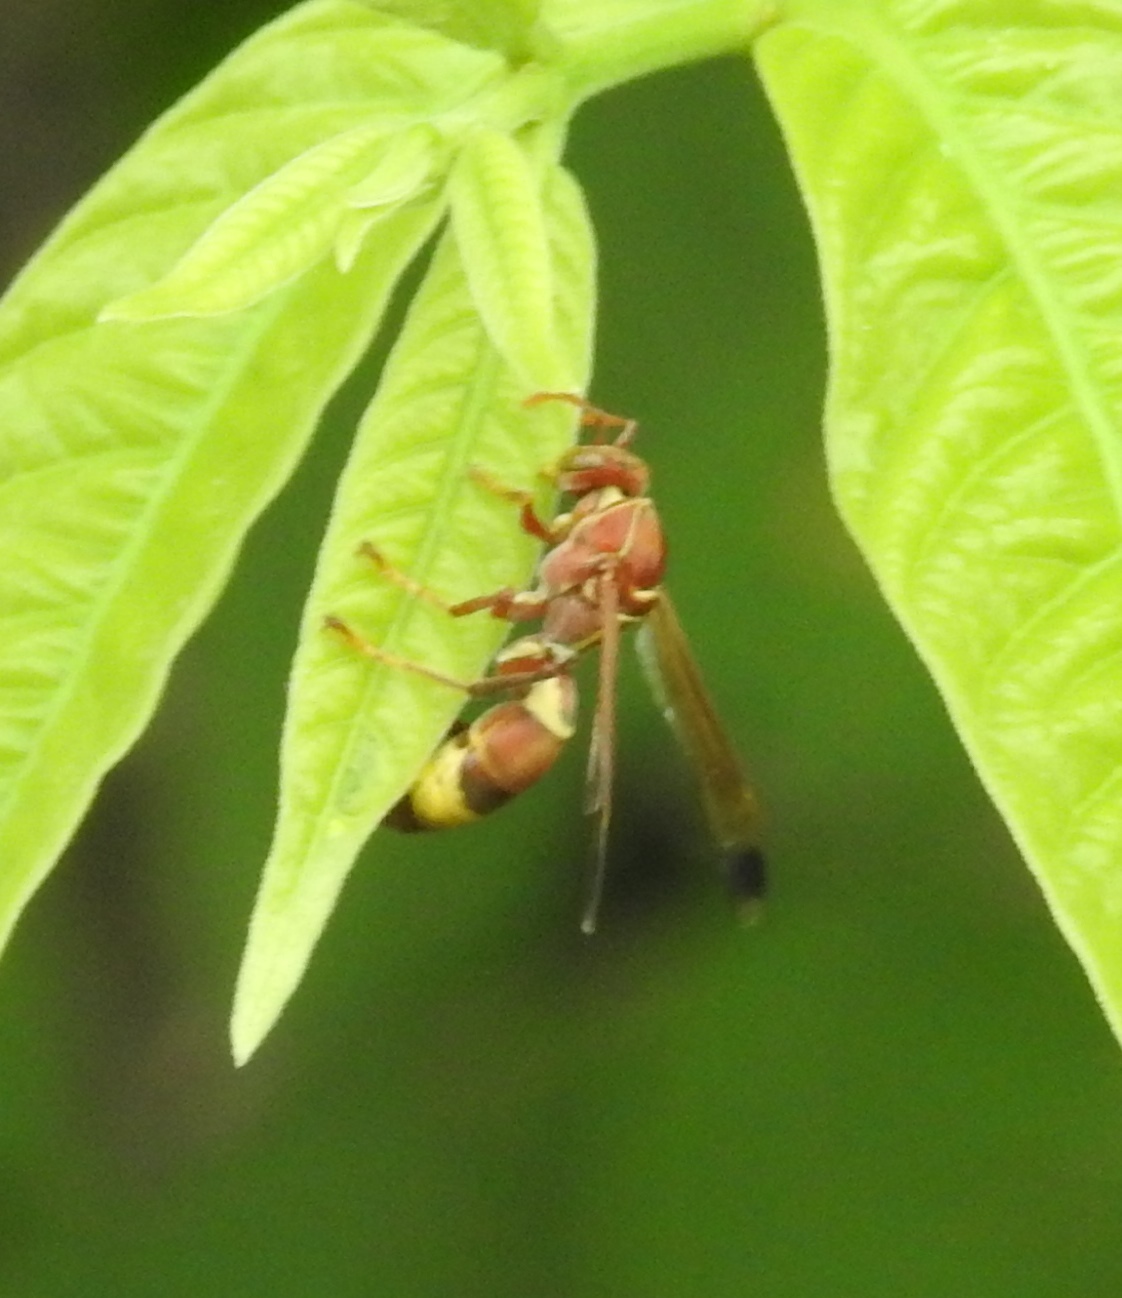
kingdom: Animalia
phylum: Arthropoda
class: Insecta
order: Hymenoptera
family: Eumenidae
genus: Polistes
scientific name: Polistes stigma
